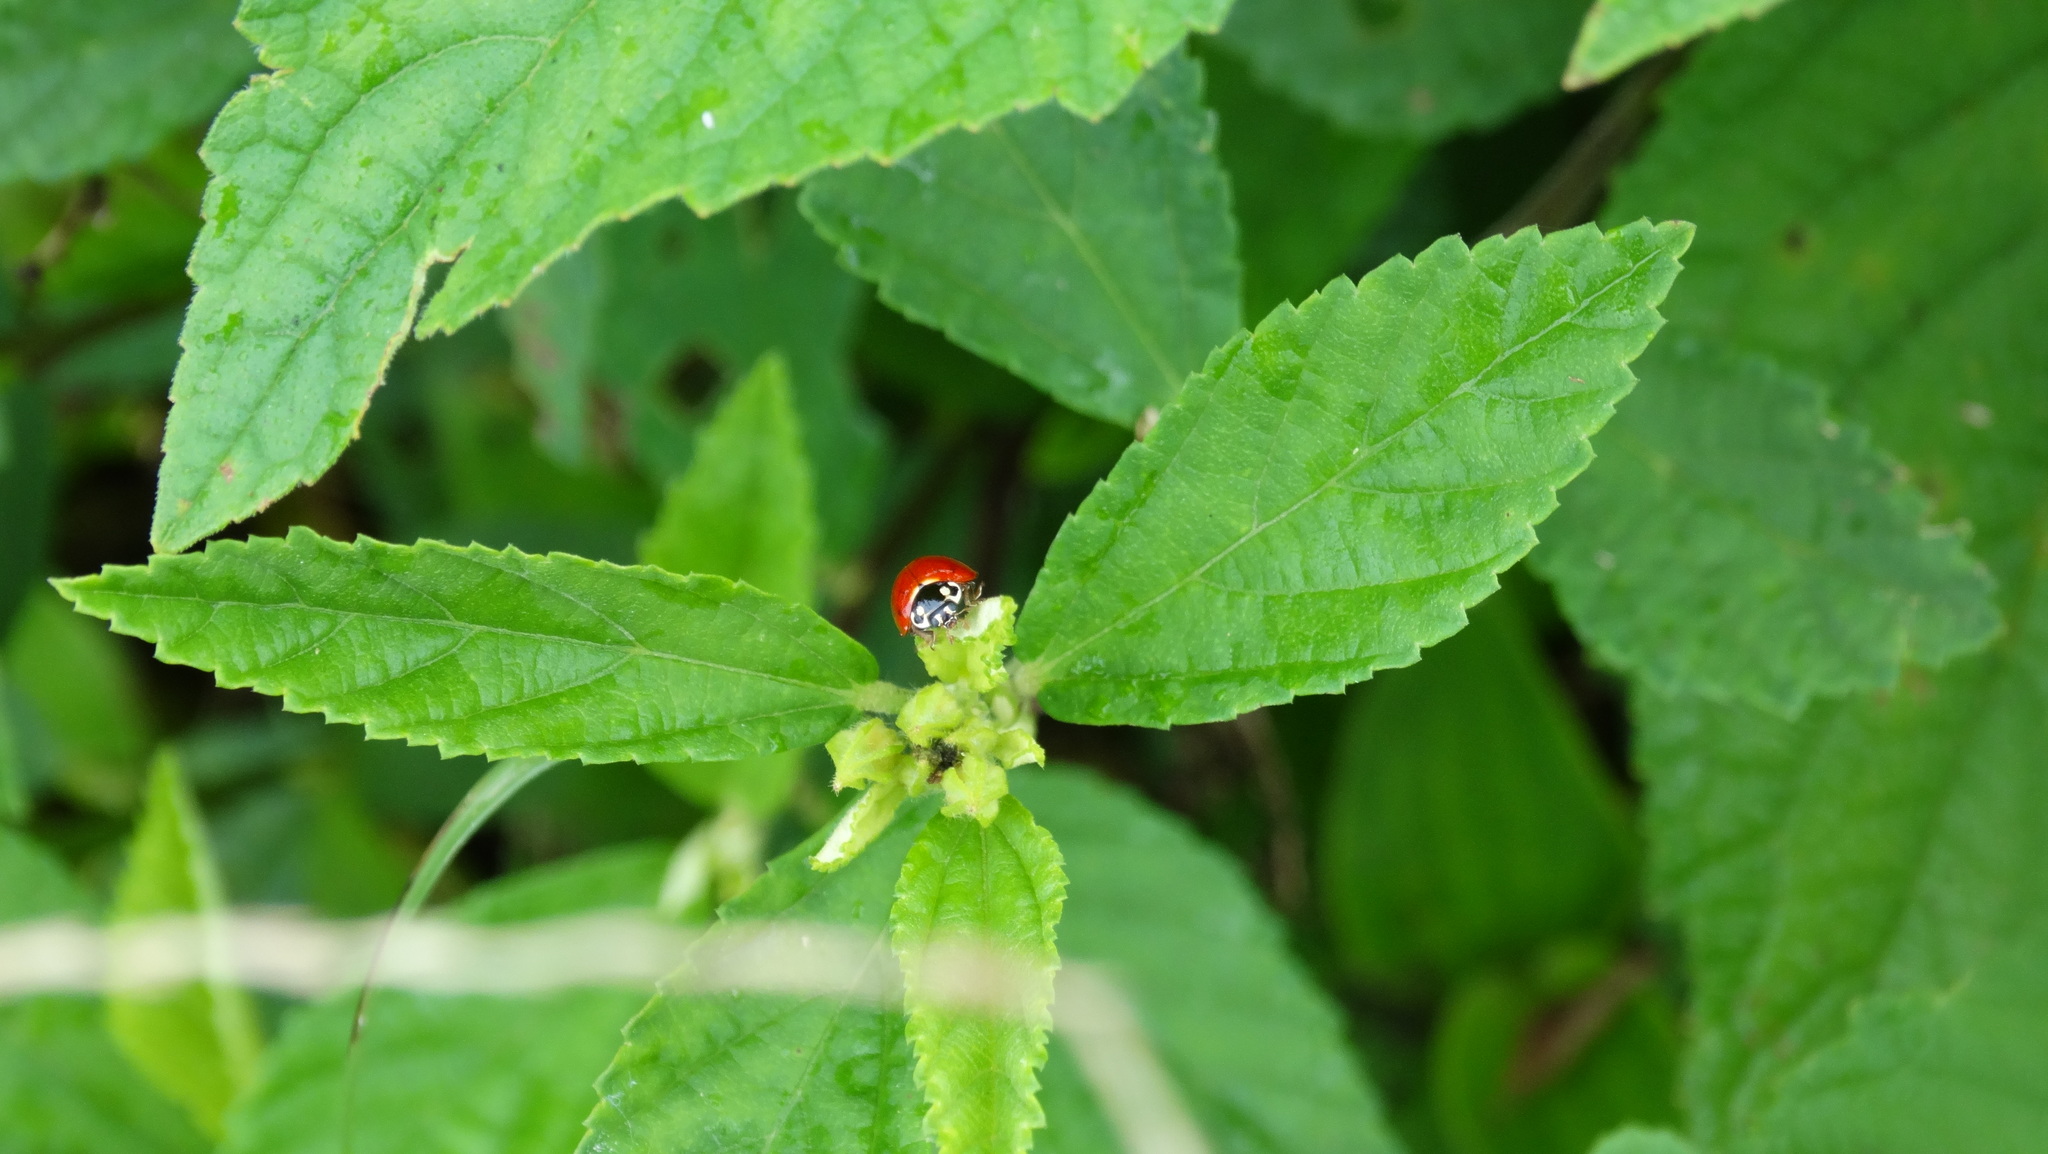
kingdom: Animalia
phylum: Arthropoda
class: Insecta
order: Coleoptera
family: Coccinellidae
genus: Cycloneda
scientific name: Cycloneda sanguinea
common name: Ladybird beetle
